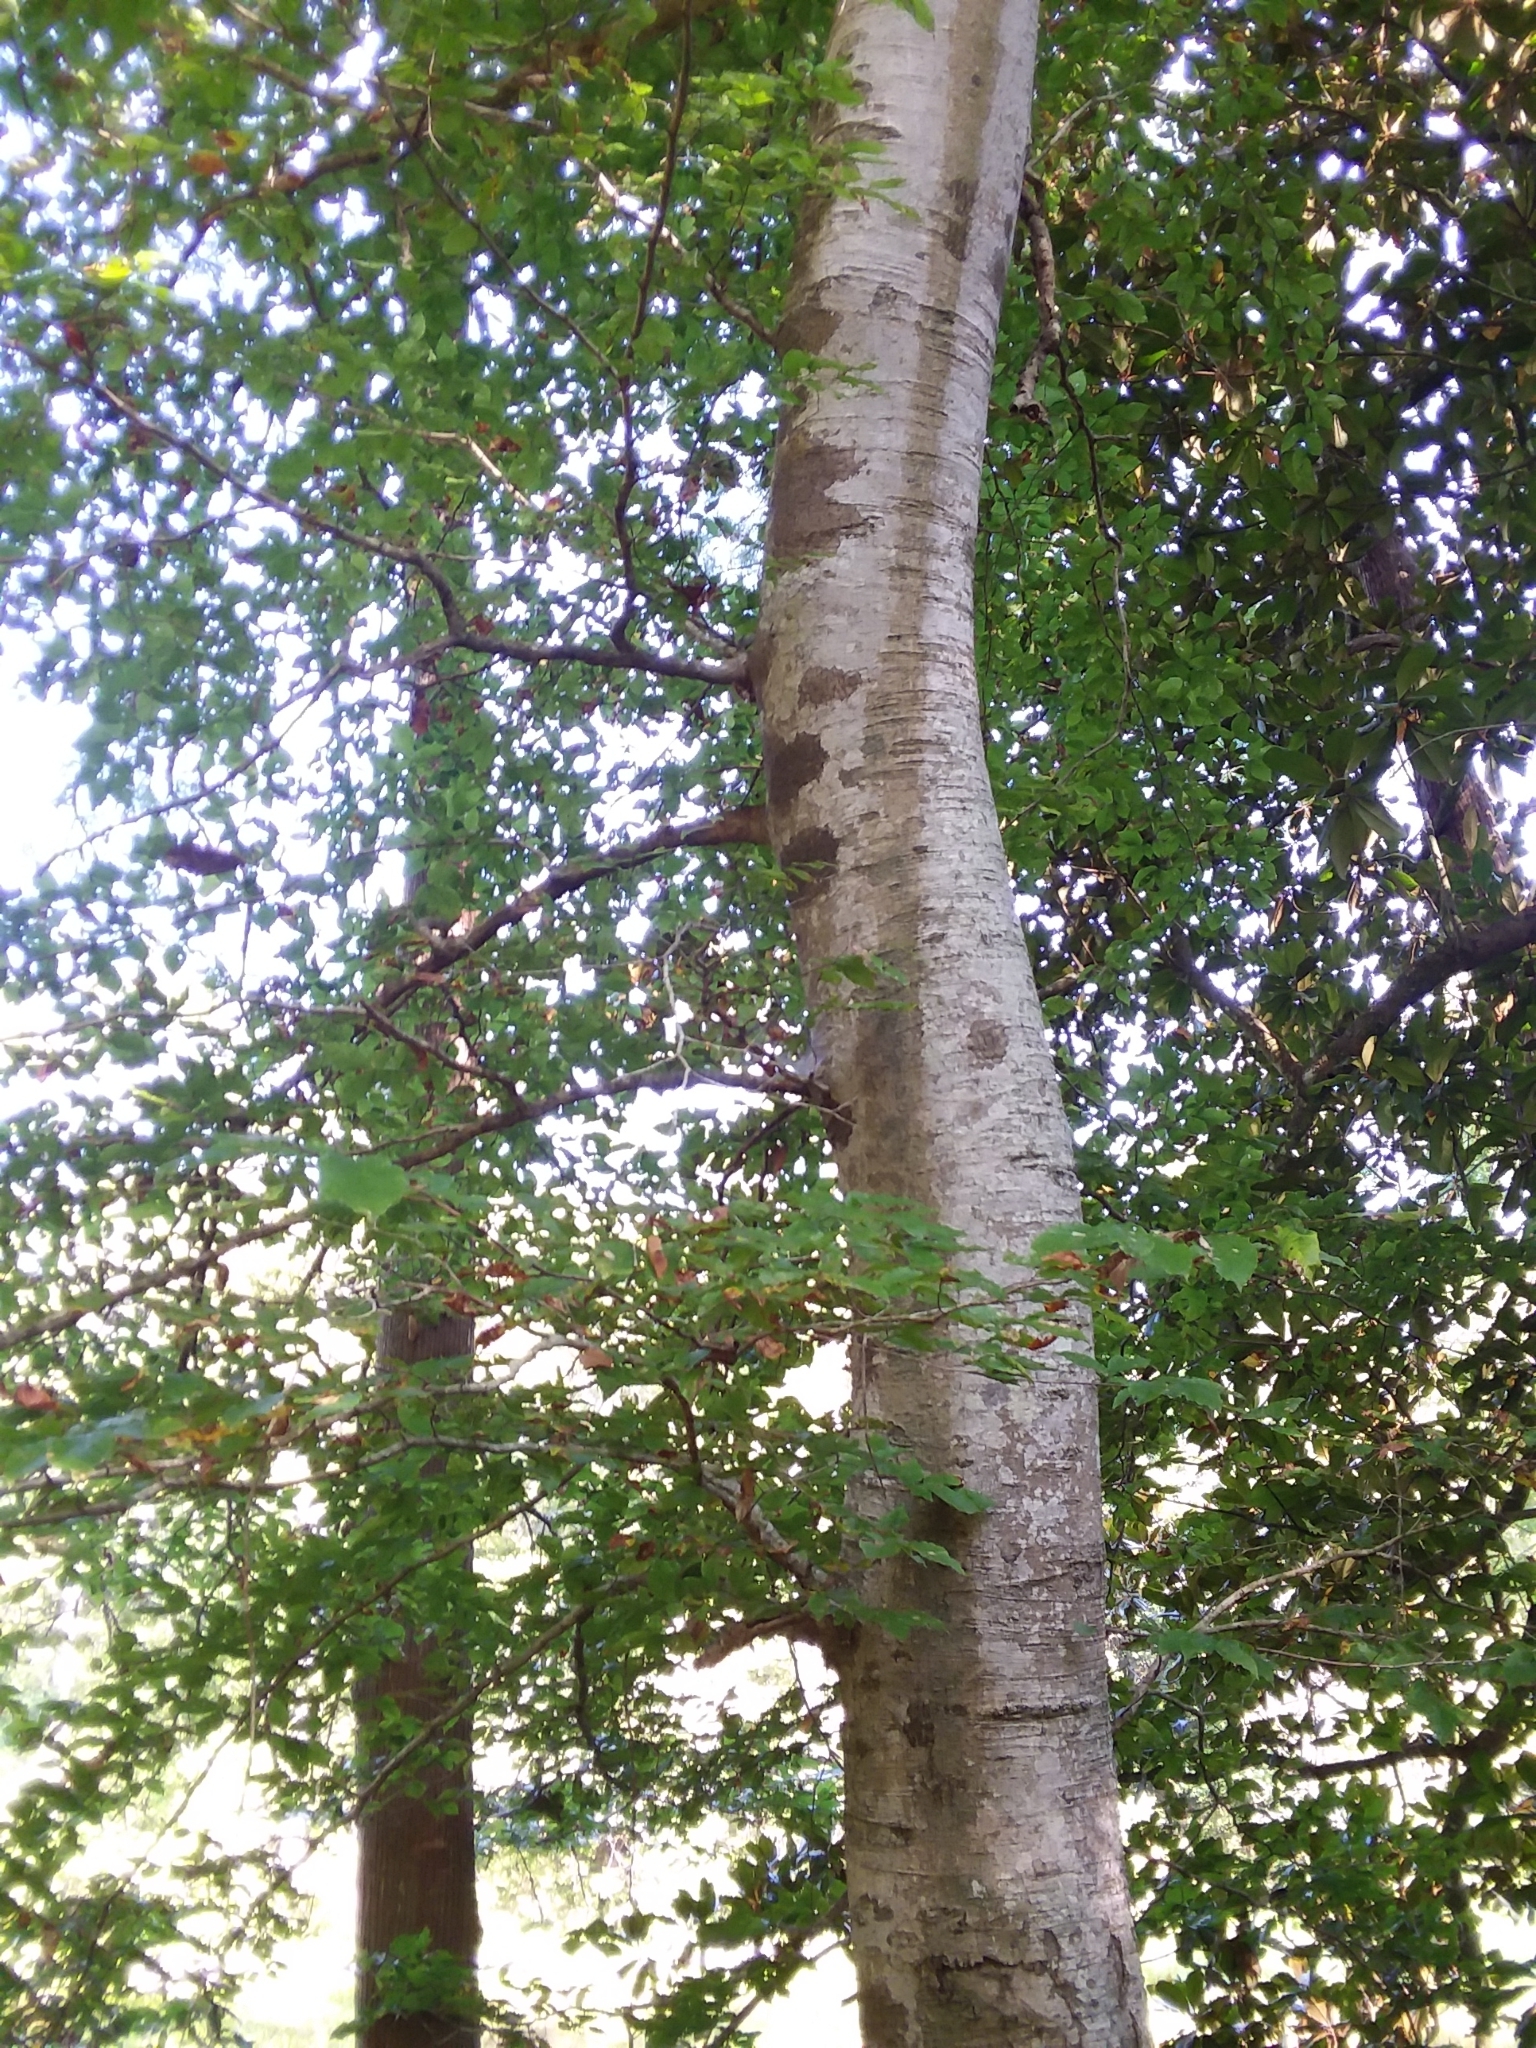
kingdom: Plantae
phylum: Tracheophyta
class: Magnoliopsida
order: Fagales
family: Fagaceae
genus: Fagus
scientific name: Fagus grandifolia
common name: American beech
